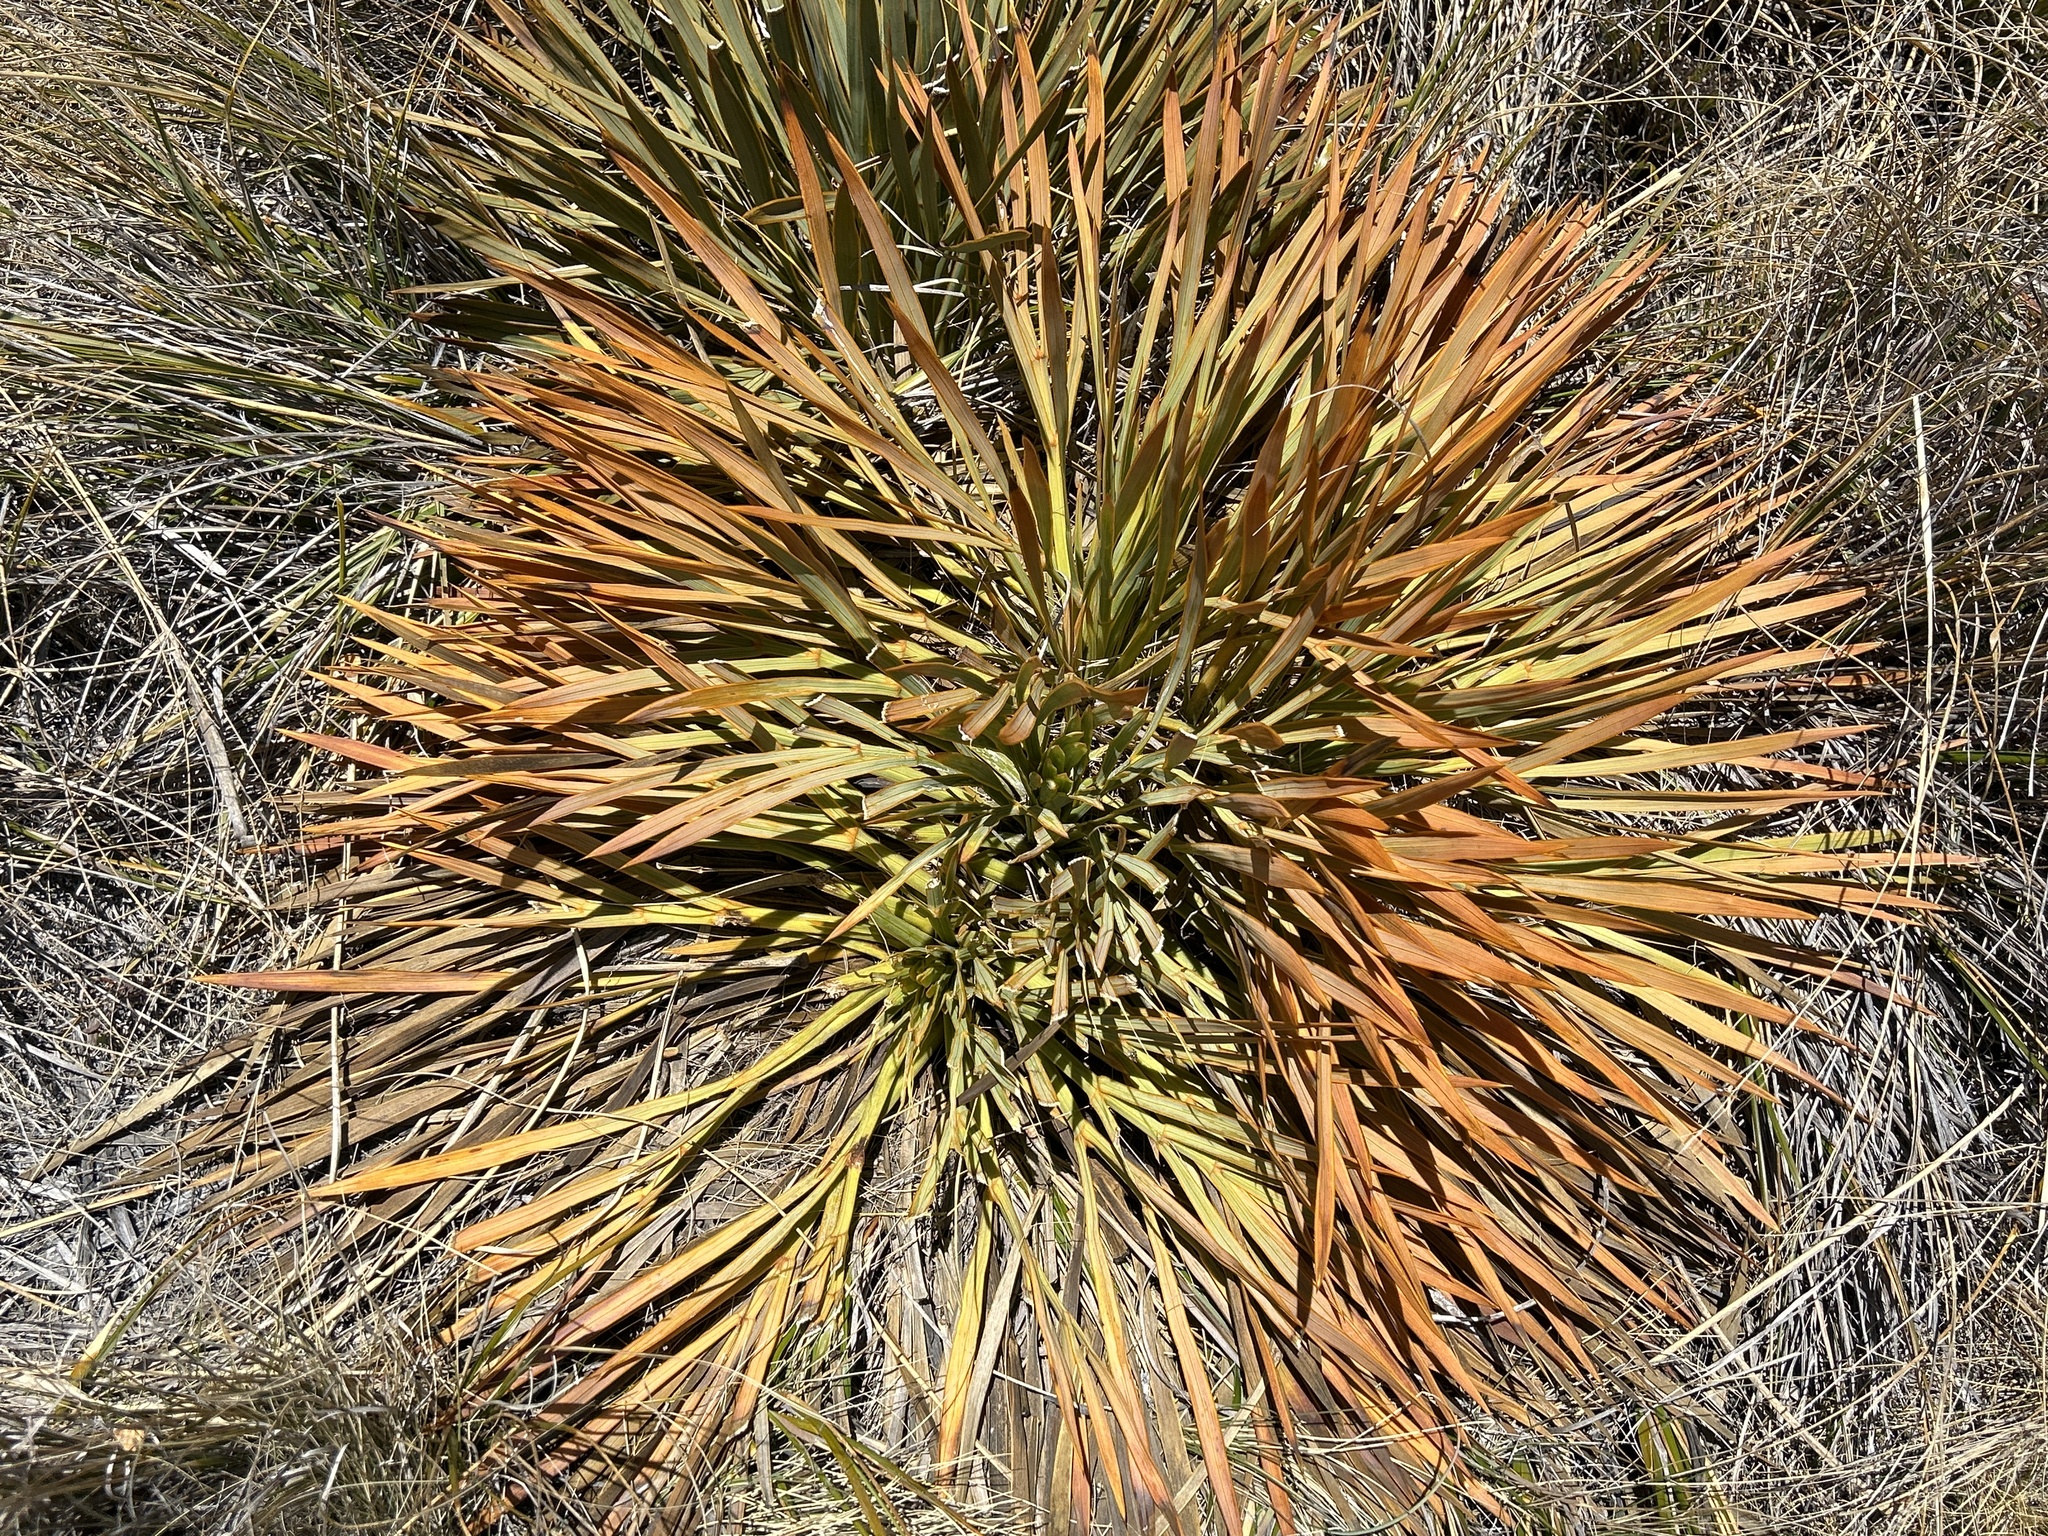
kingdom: Plantae
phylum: Tracheophyta
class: Magnoliopsida
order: Apiales
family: Apiaceae
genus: Aciphylla
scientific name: Aciphylla aurea
